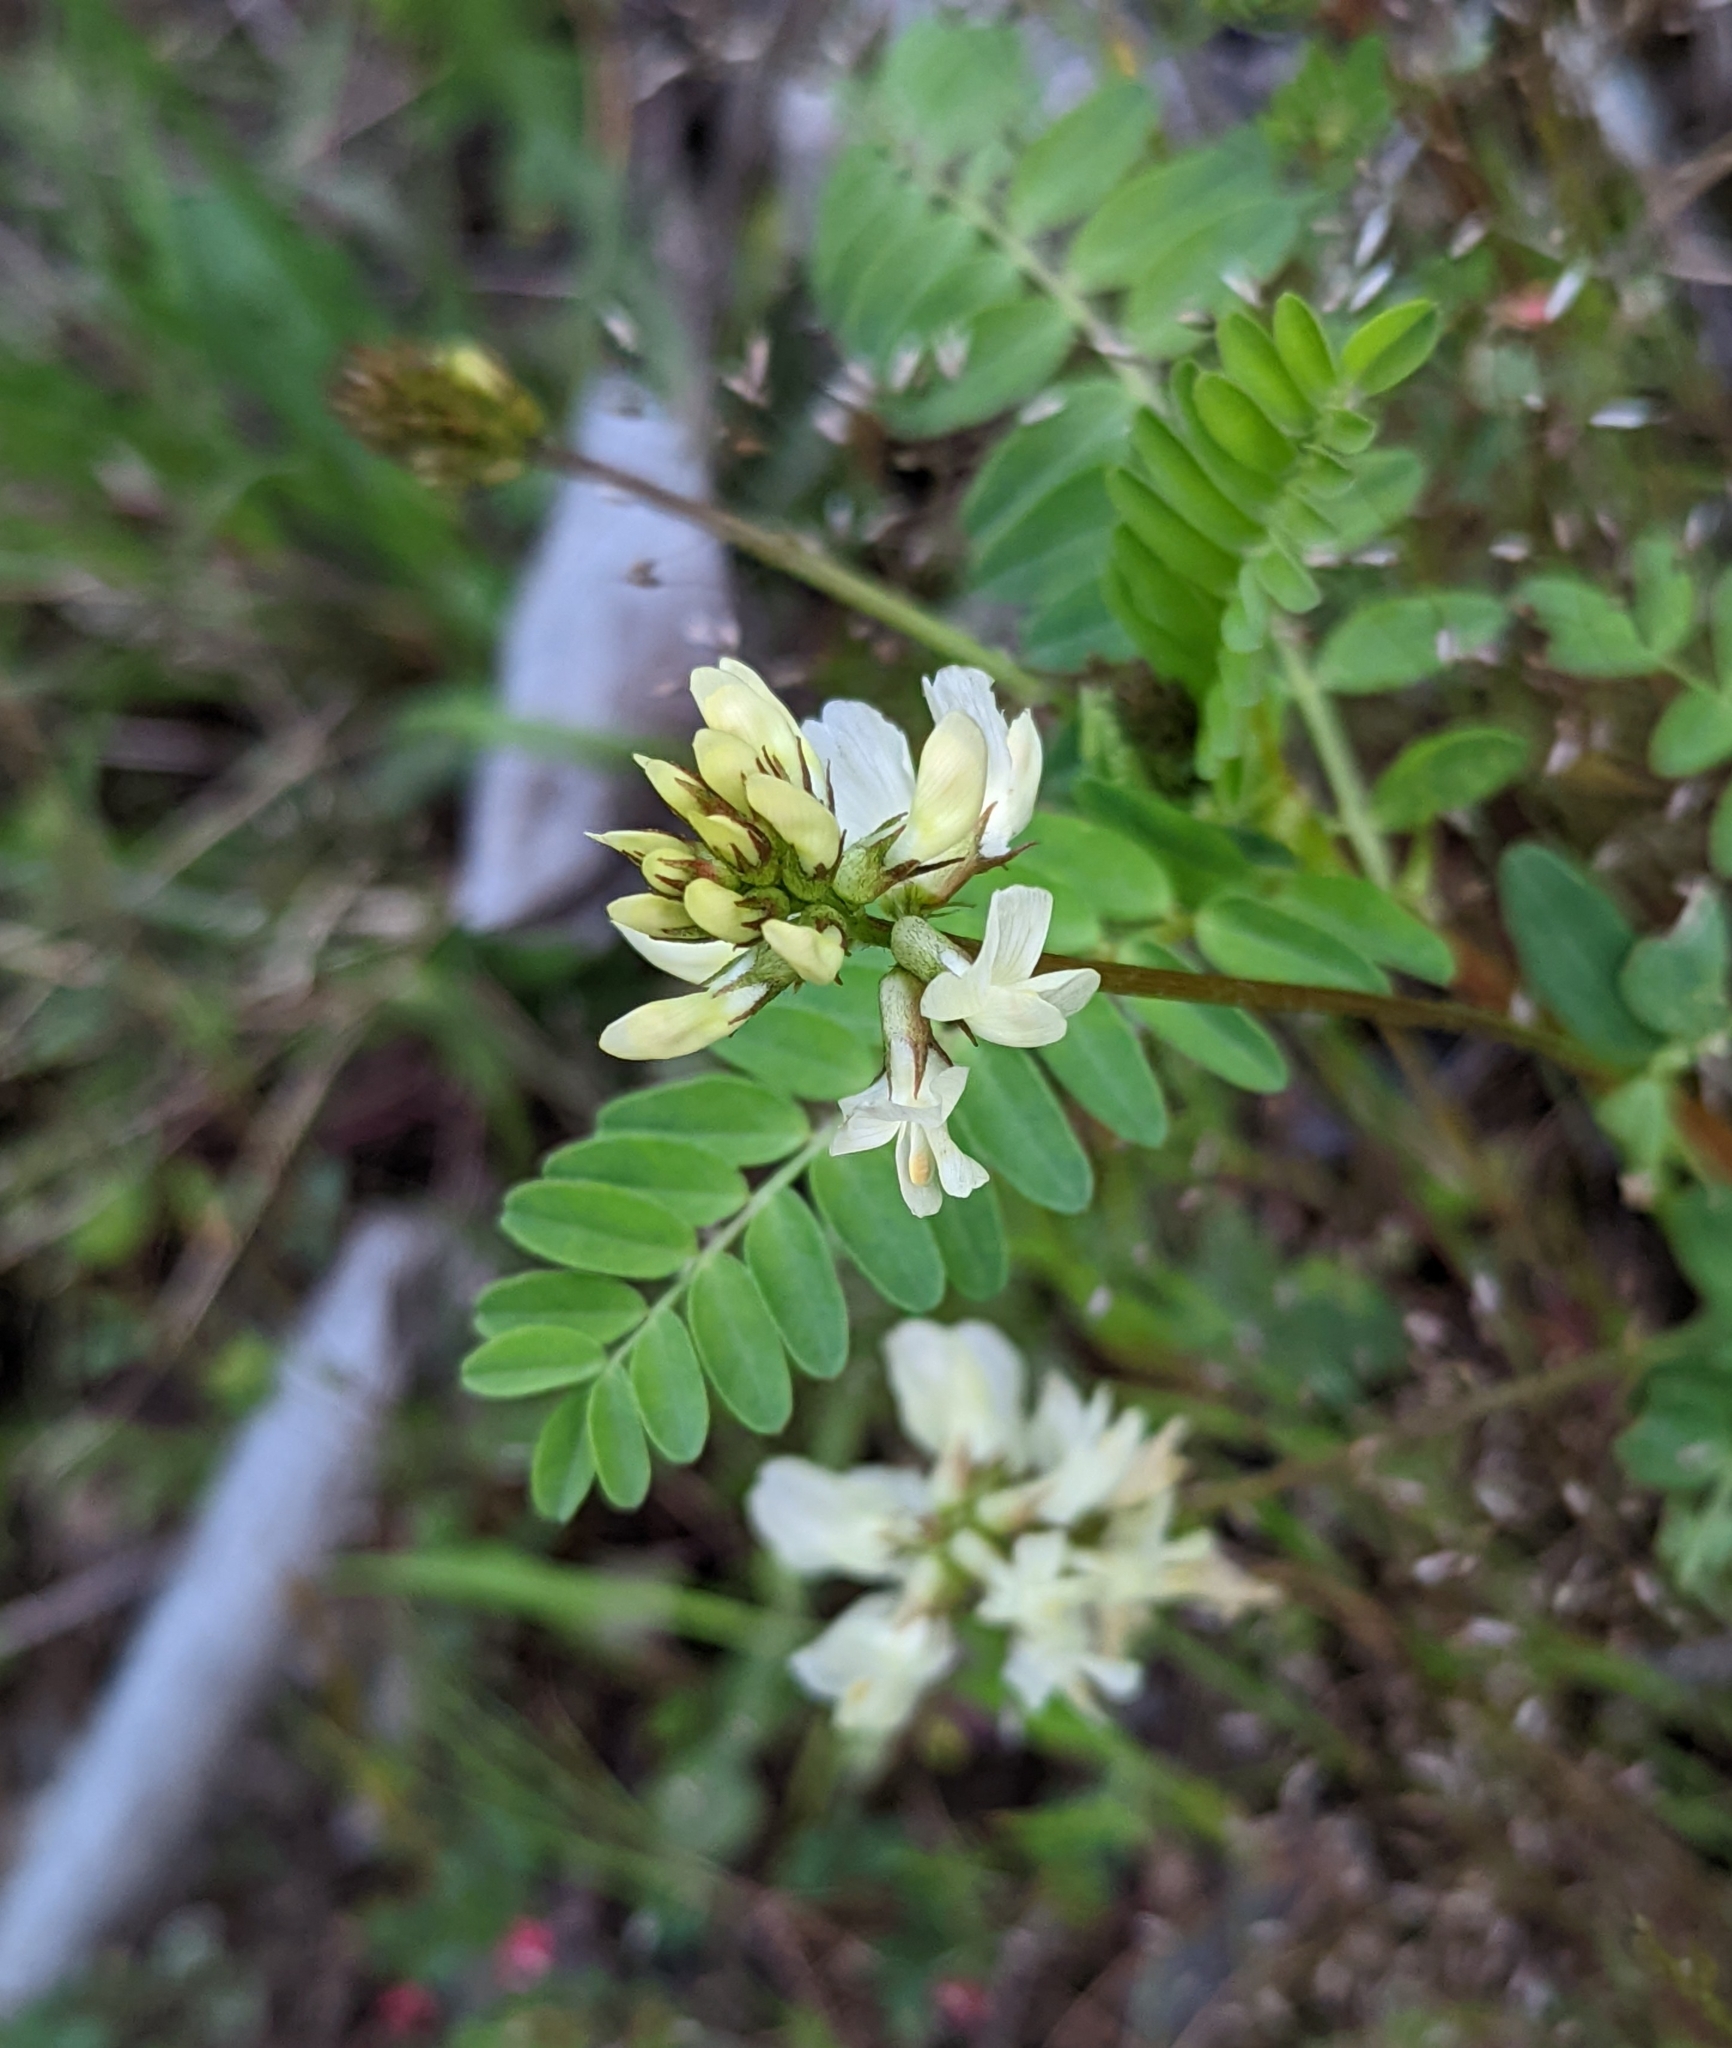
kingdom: Plantae
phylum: Tracheophyta
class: Magnoliopsida
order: Fabales
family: Fabaceae
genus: Astragalus
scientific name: Astragalus accidens
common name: Rogue river milkvetch
